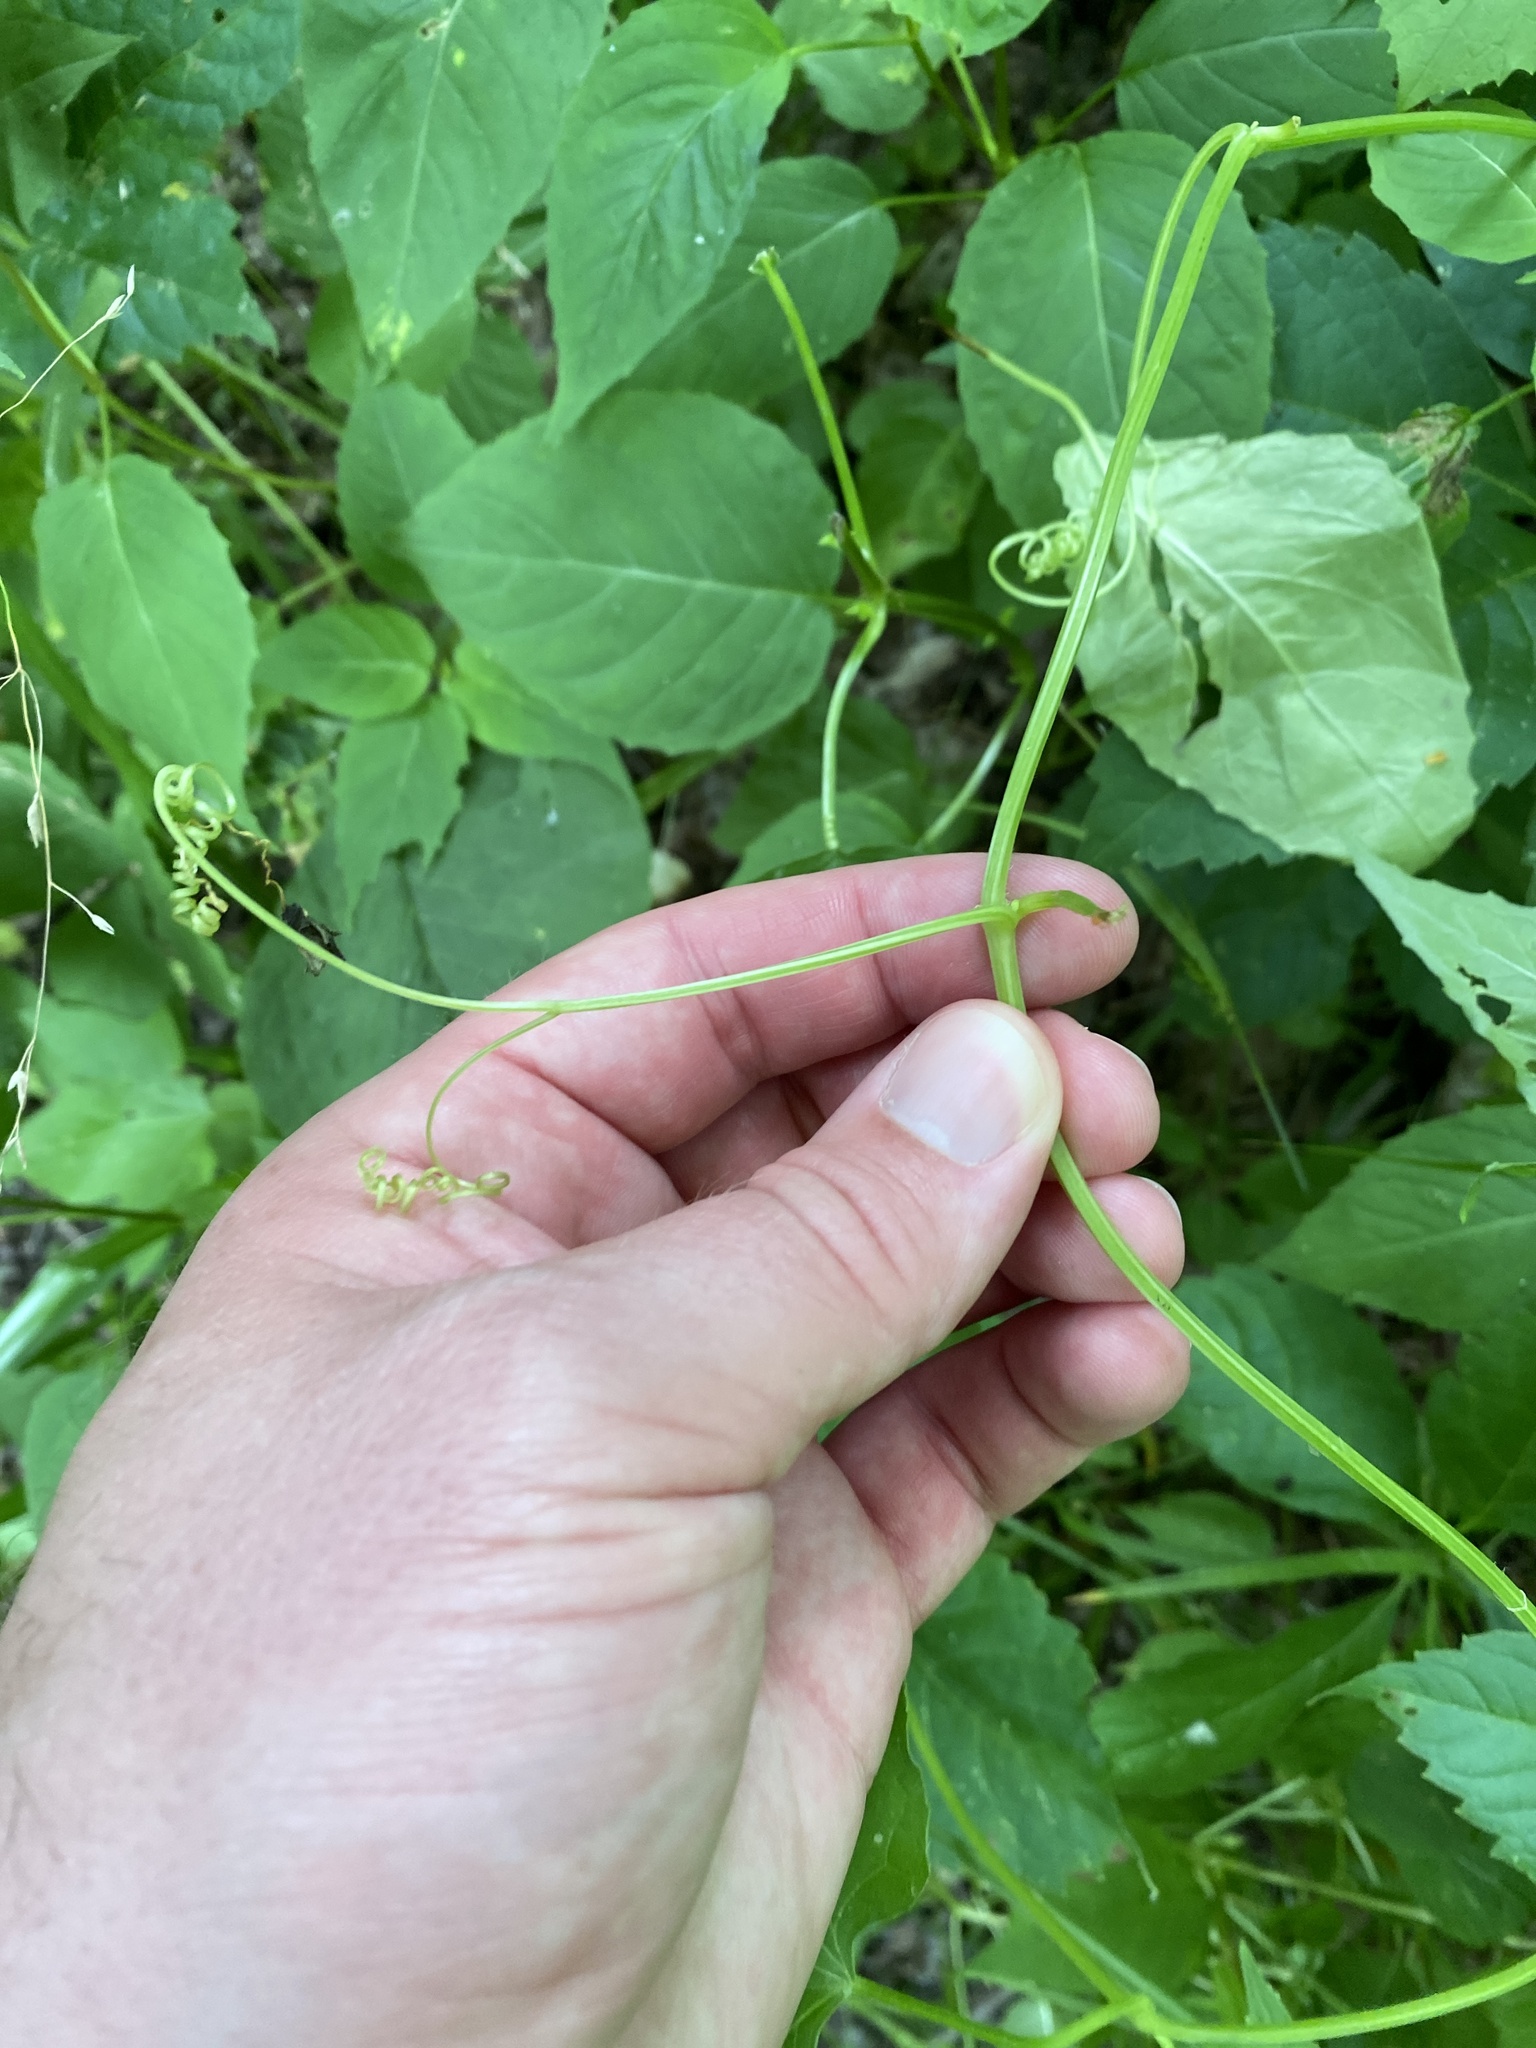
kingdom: Plantae
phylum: Tracheophyta
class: Magnoliopsida
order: Cucurbitales
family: Cucurbitaceae
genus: Echinocystis
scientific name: Echinocystis lobata
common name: Wild cucumber
